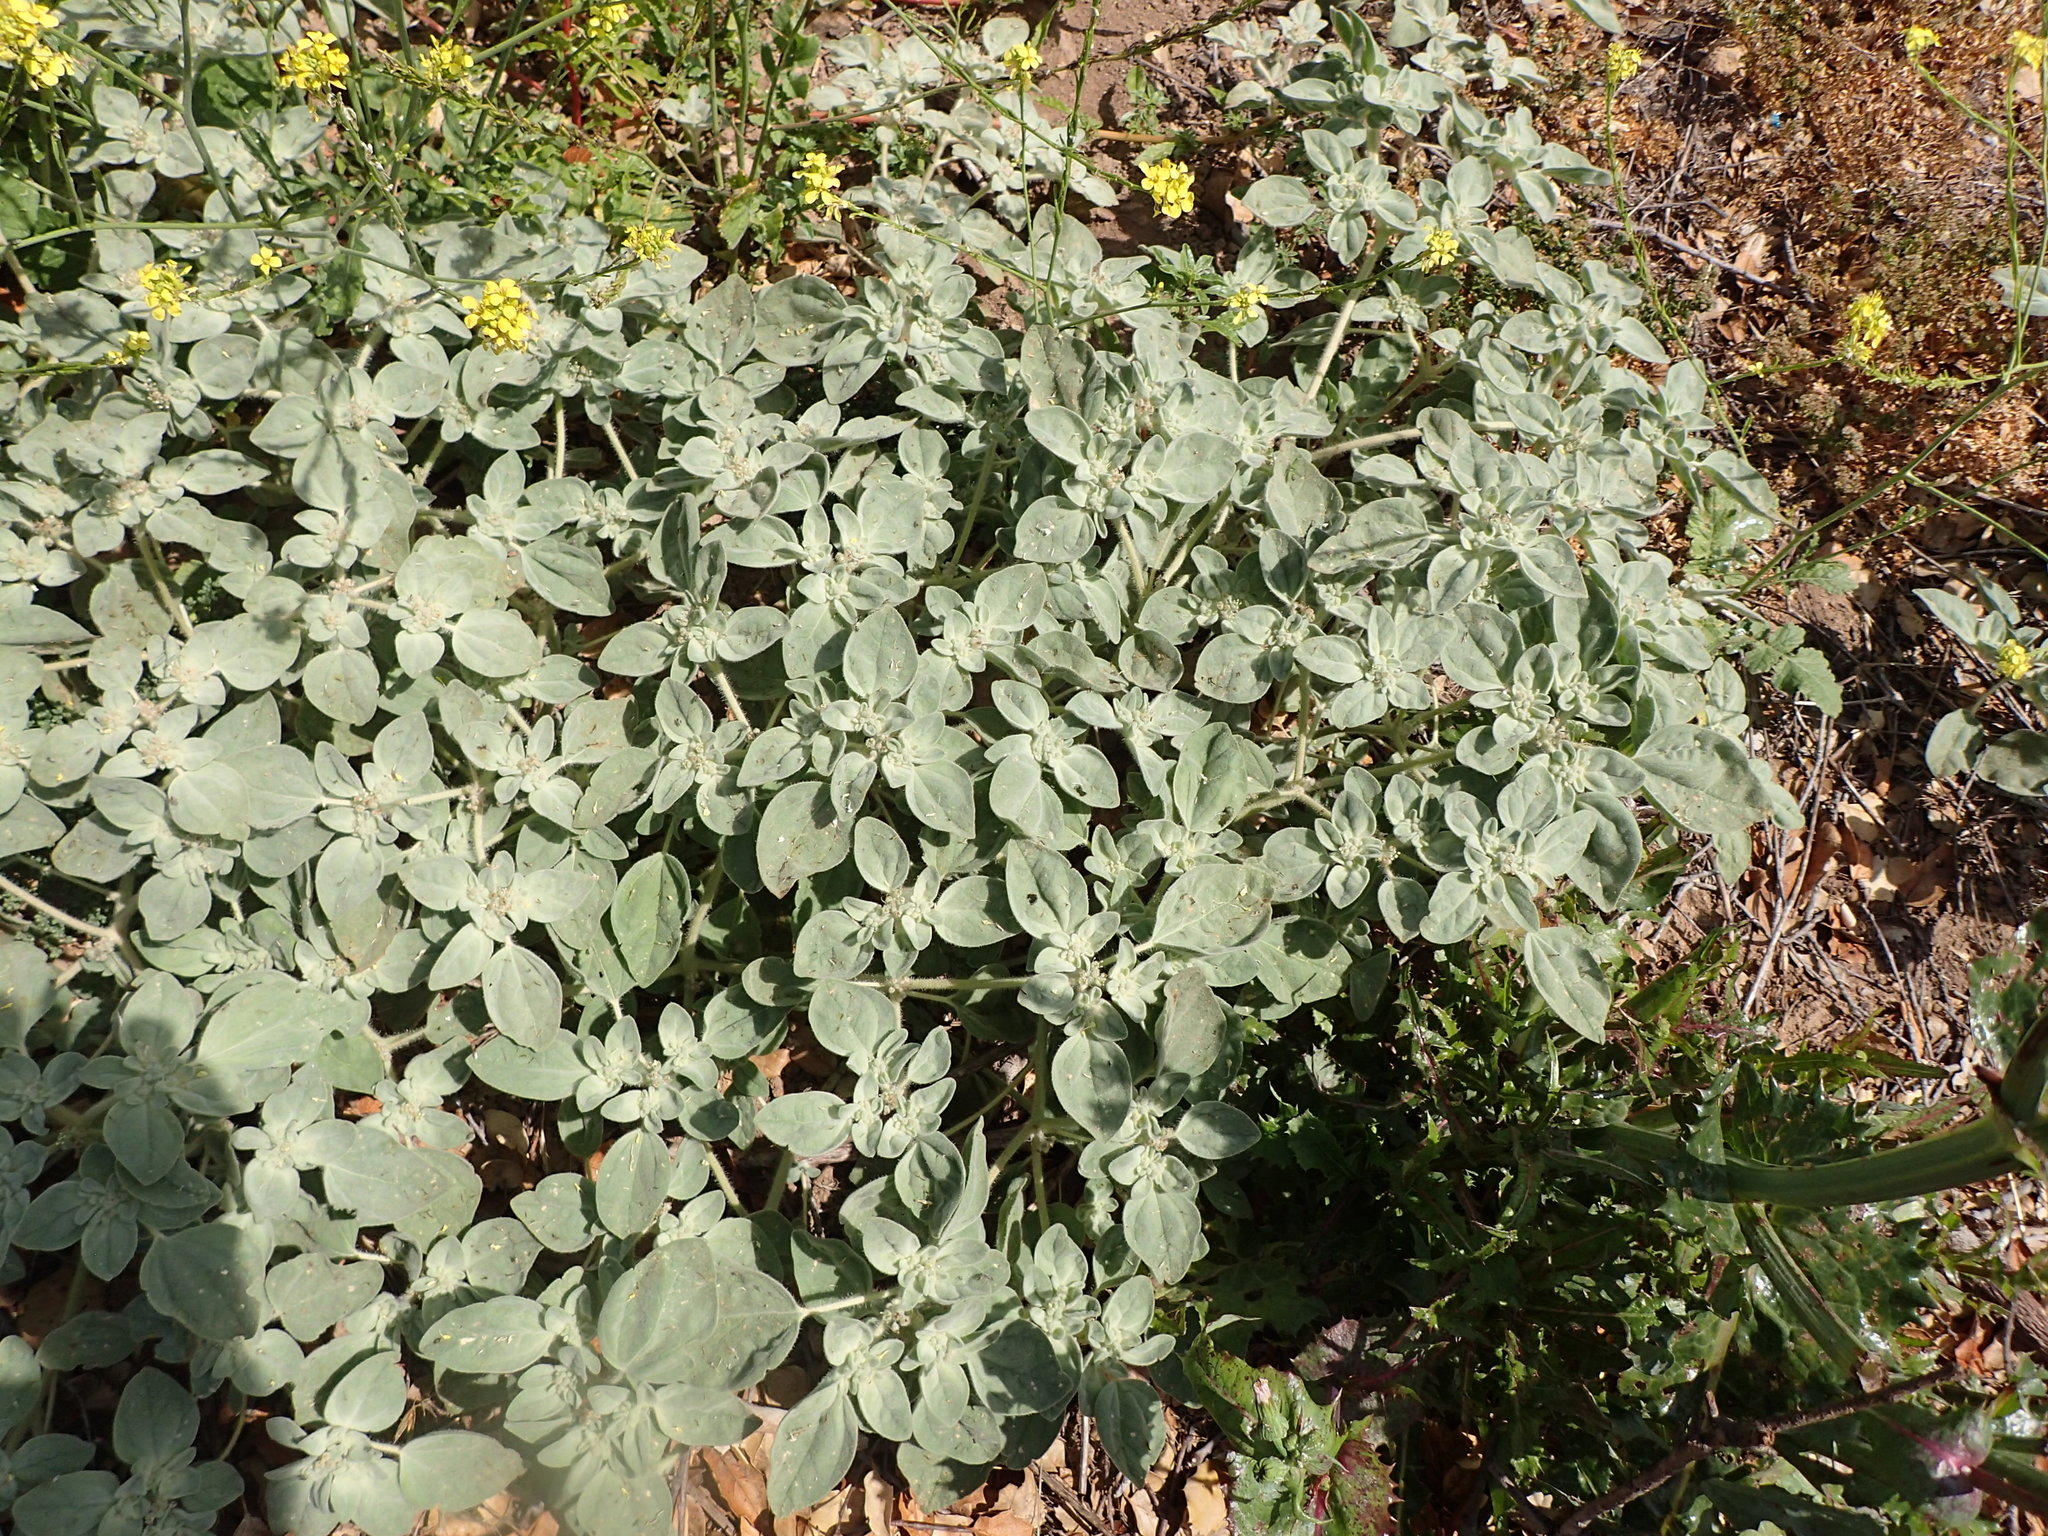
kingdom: Plantae
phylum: Tracheophyta
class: Magnoliopsida
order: Malpighiales
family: Euphorbiaceae
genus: Croton
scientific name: Croton setiger
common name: Dove weed
